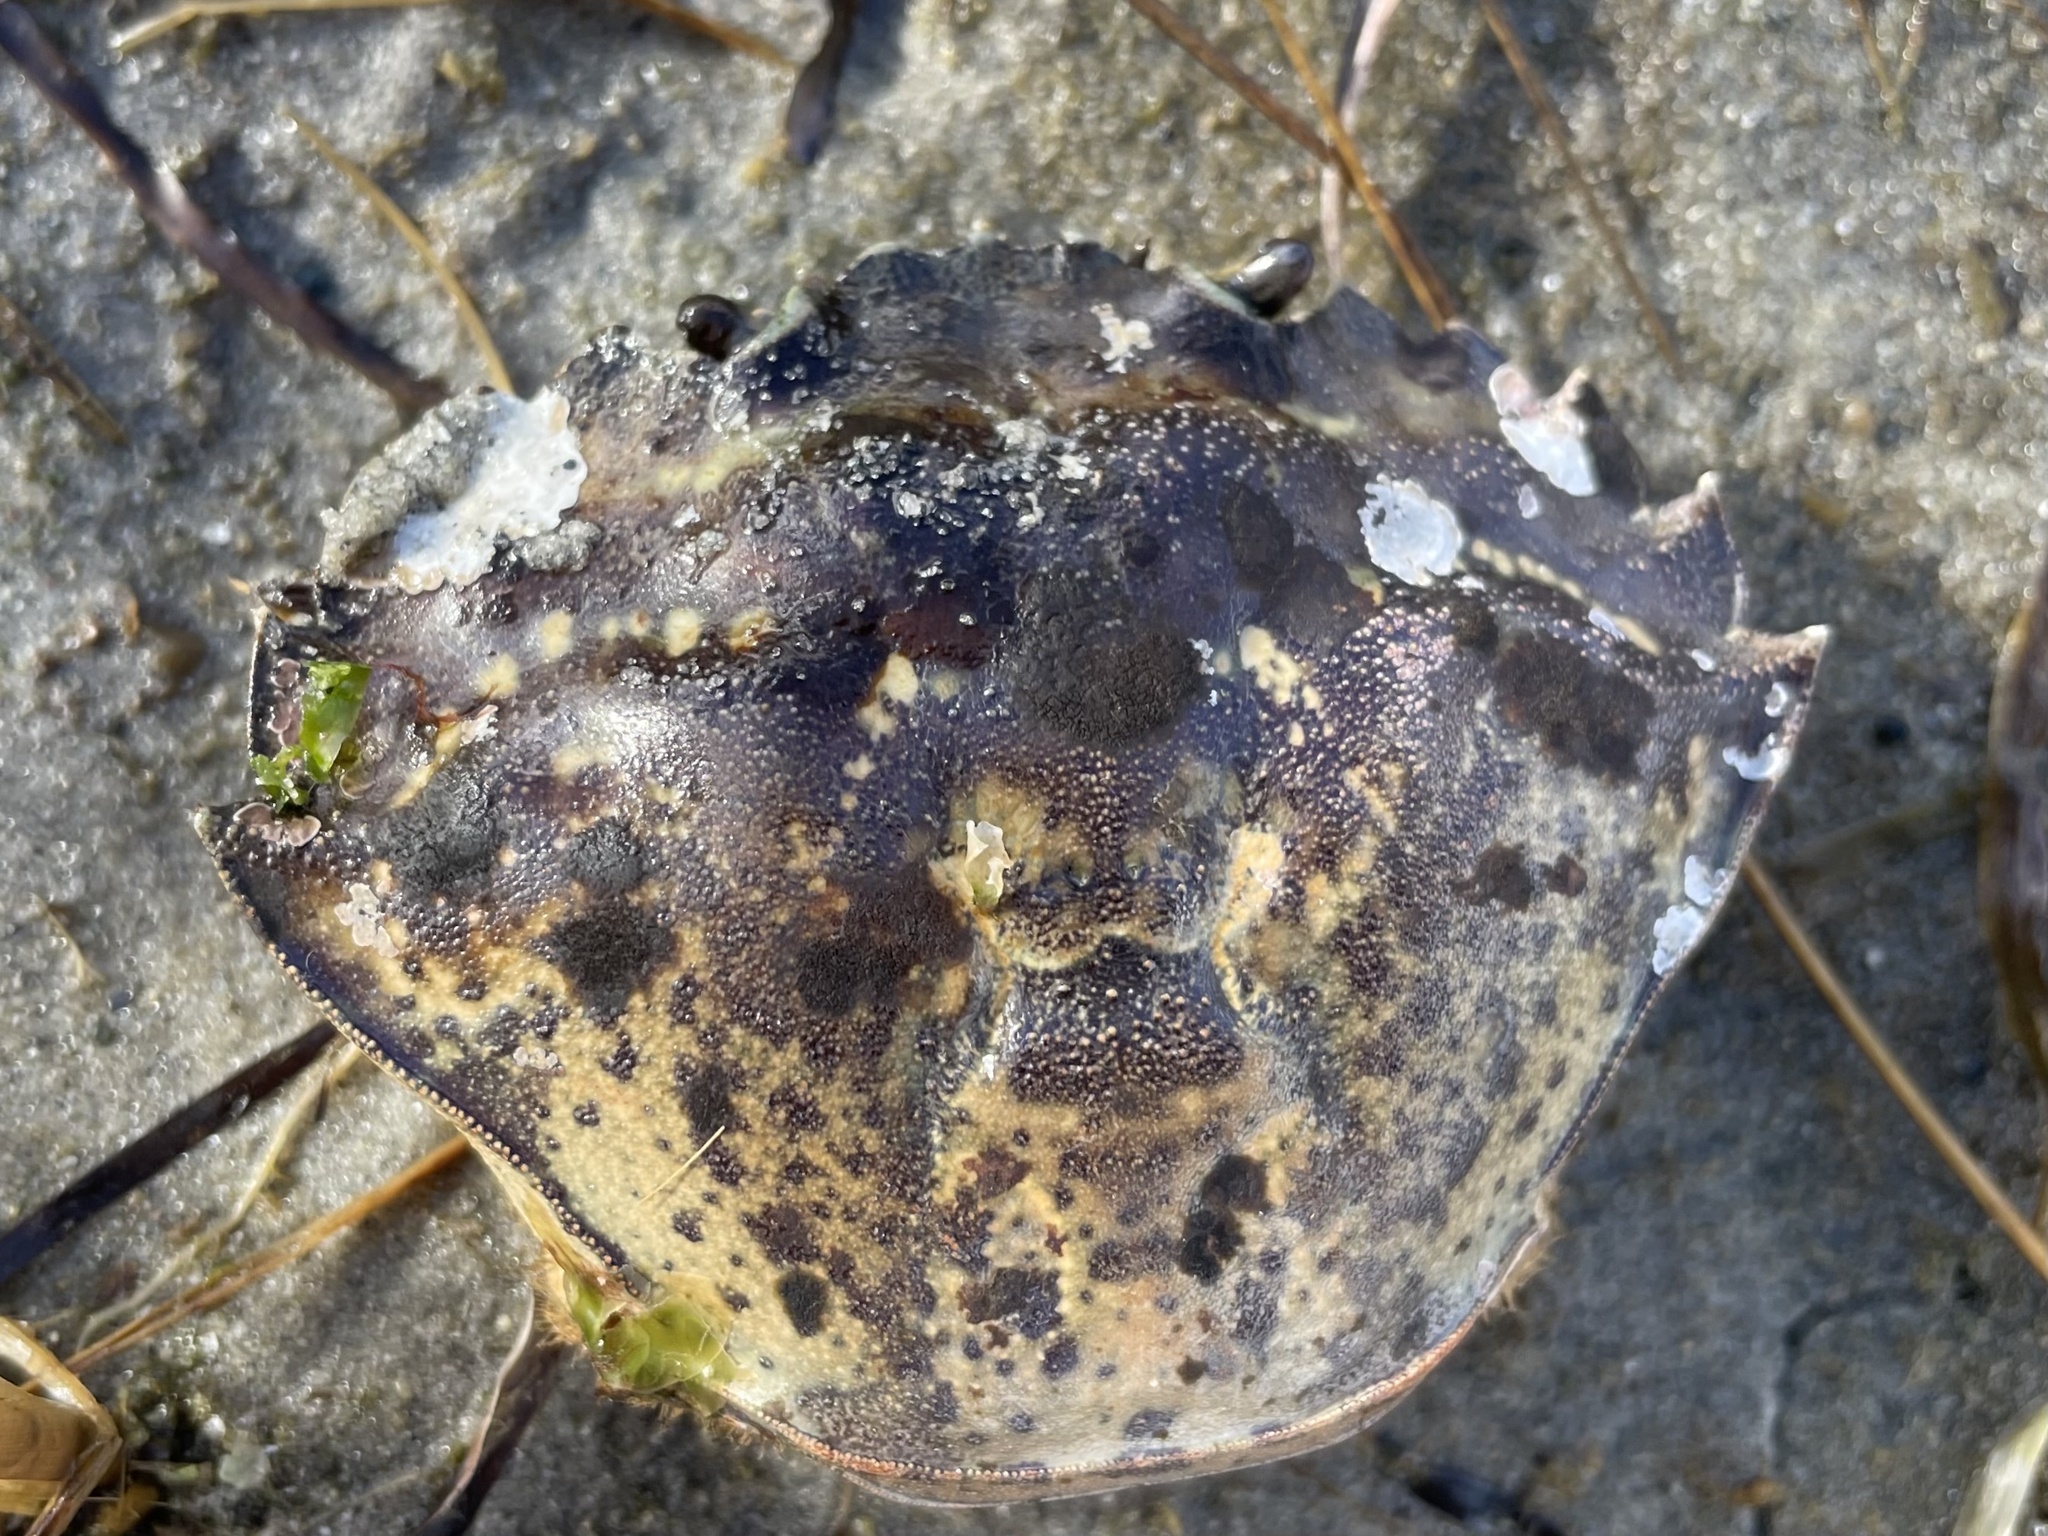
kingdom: Animalia
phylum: Arthropoda
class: Malacostraca
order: Decapoda
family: Carcinidae
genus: Carcinus
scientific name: Carcinus maenas
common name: European green crab
